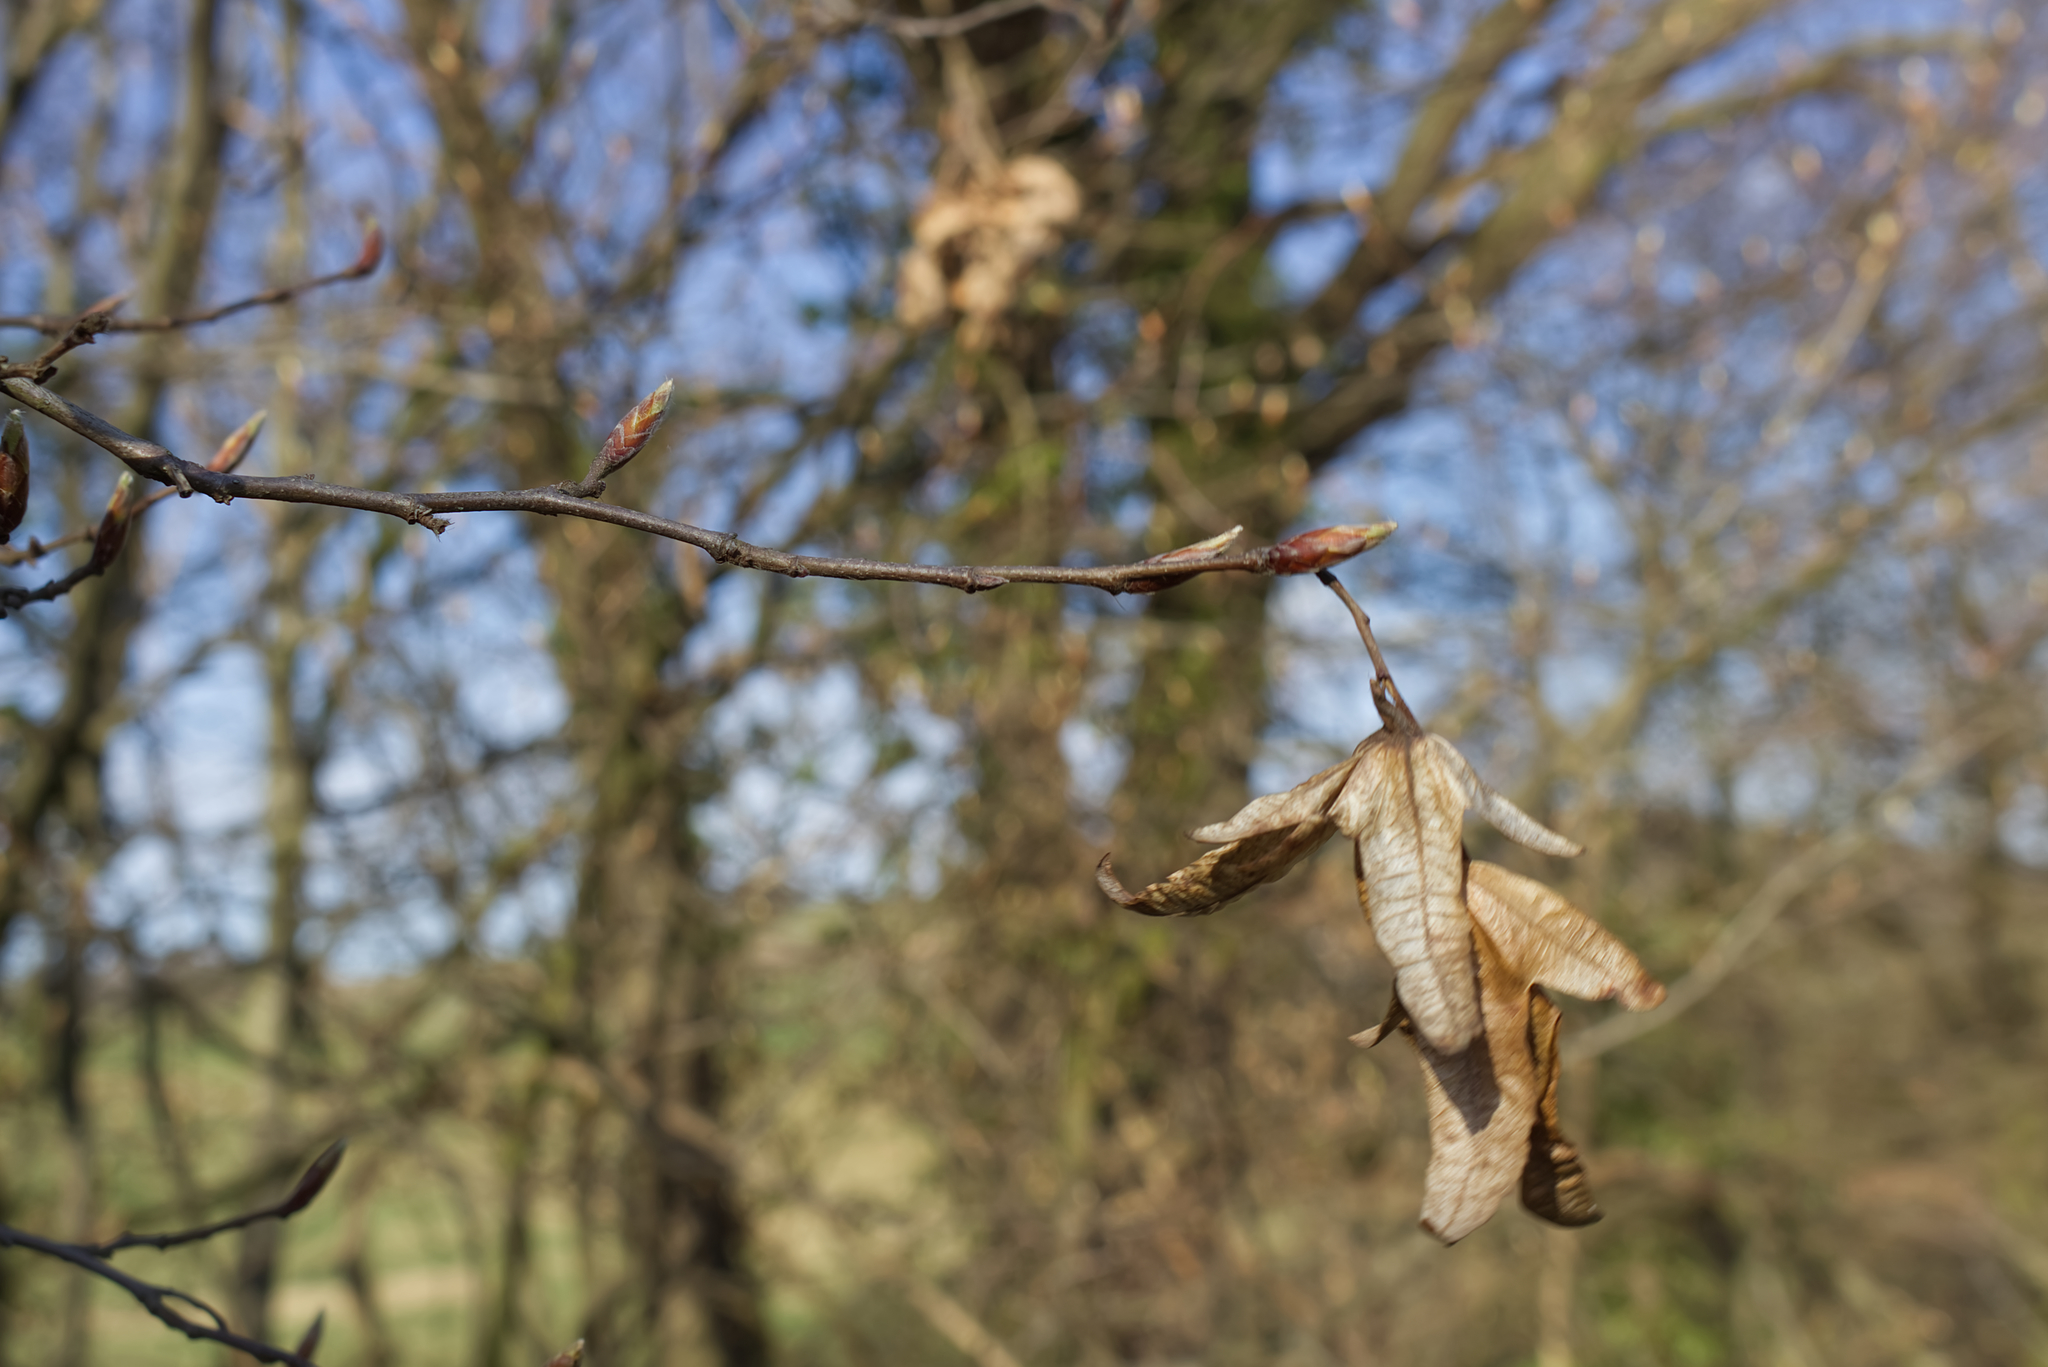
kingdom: Plantae
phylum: Tracheophyta
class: Magnoliopsida
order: Fagales
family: Betulaceae
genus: Carpinus
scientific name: Carpinus betulus
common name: Hornbeam
